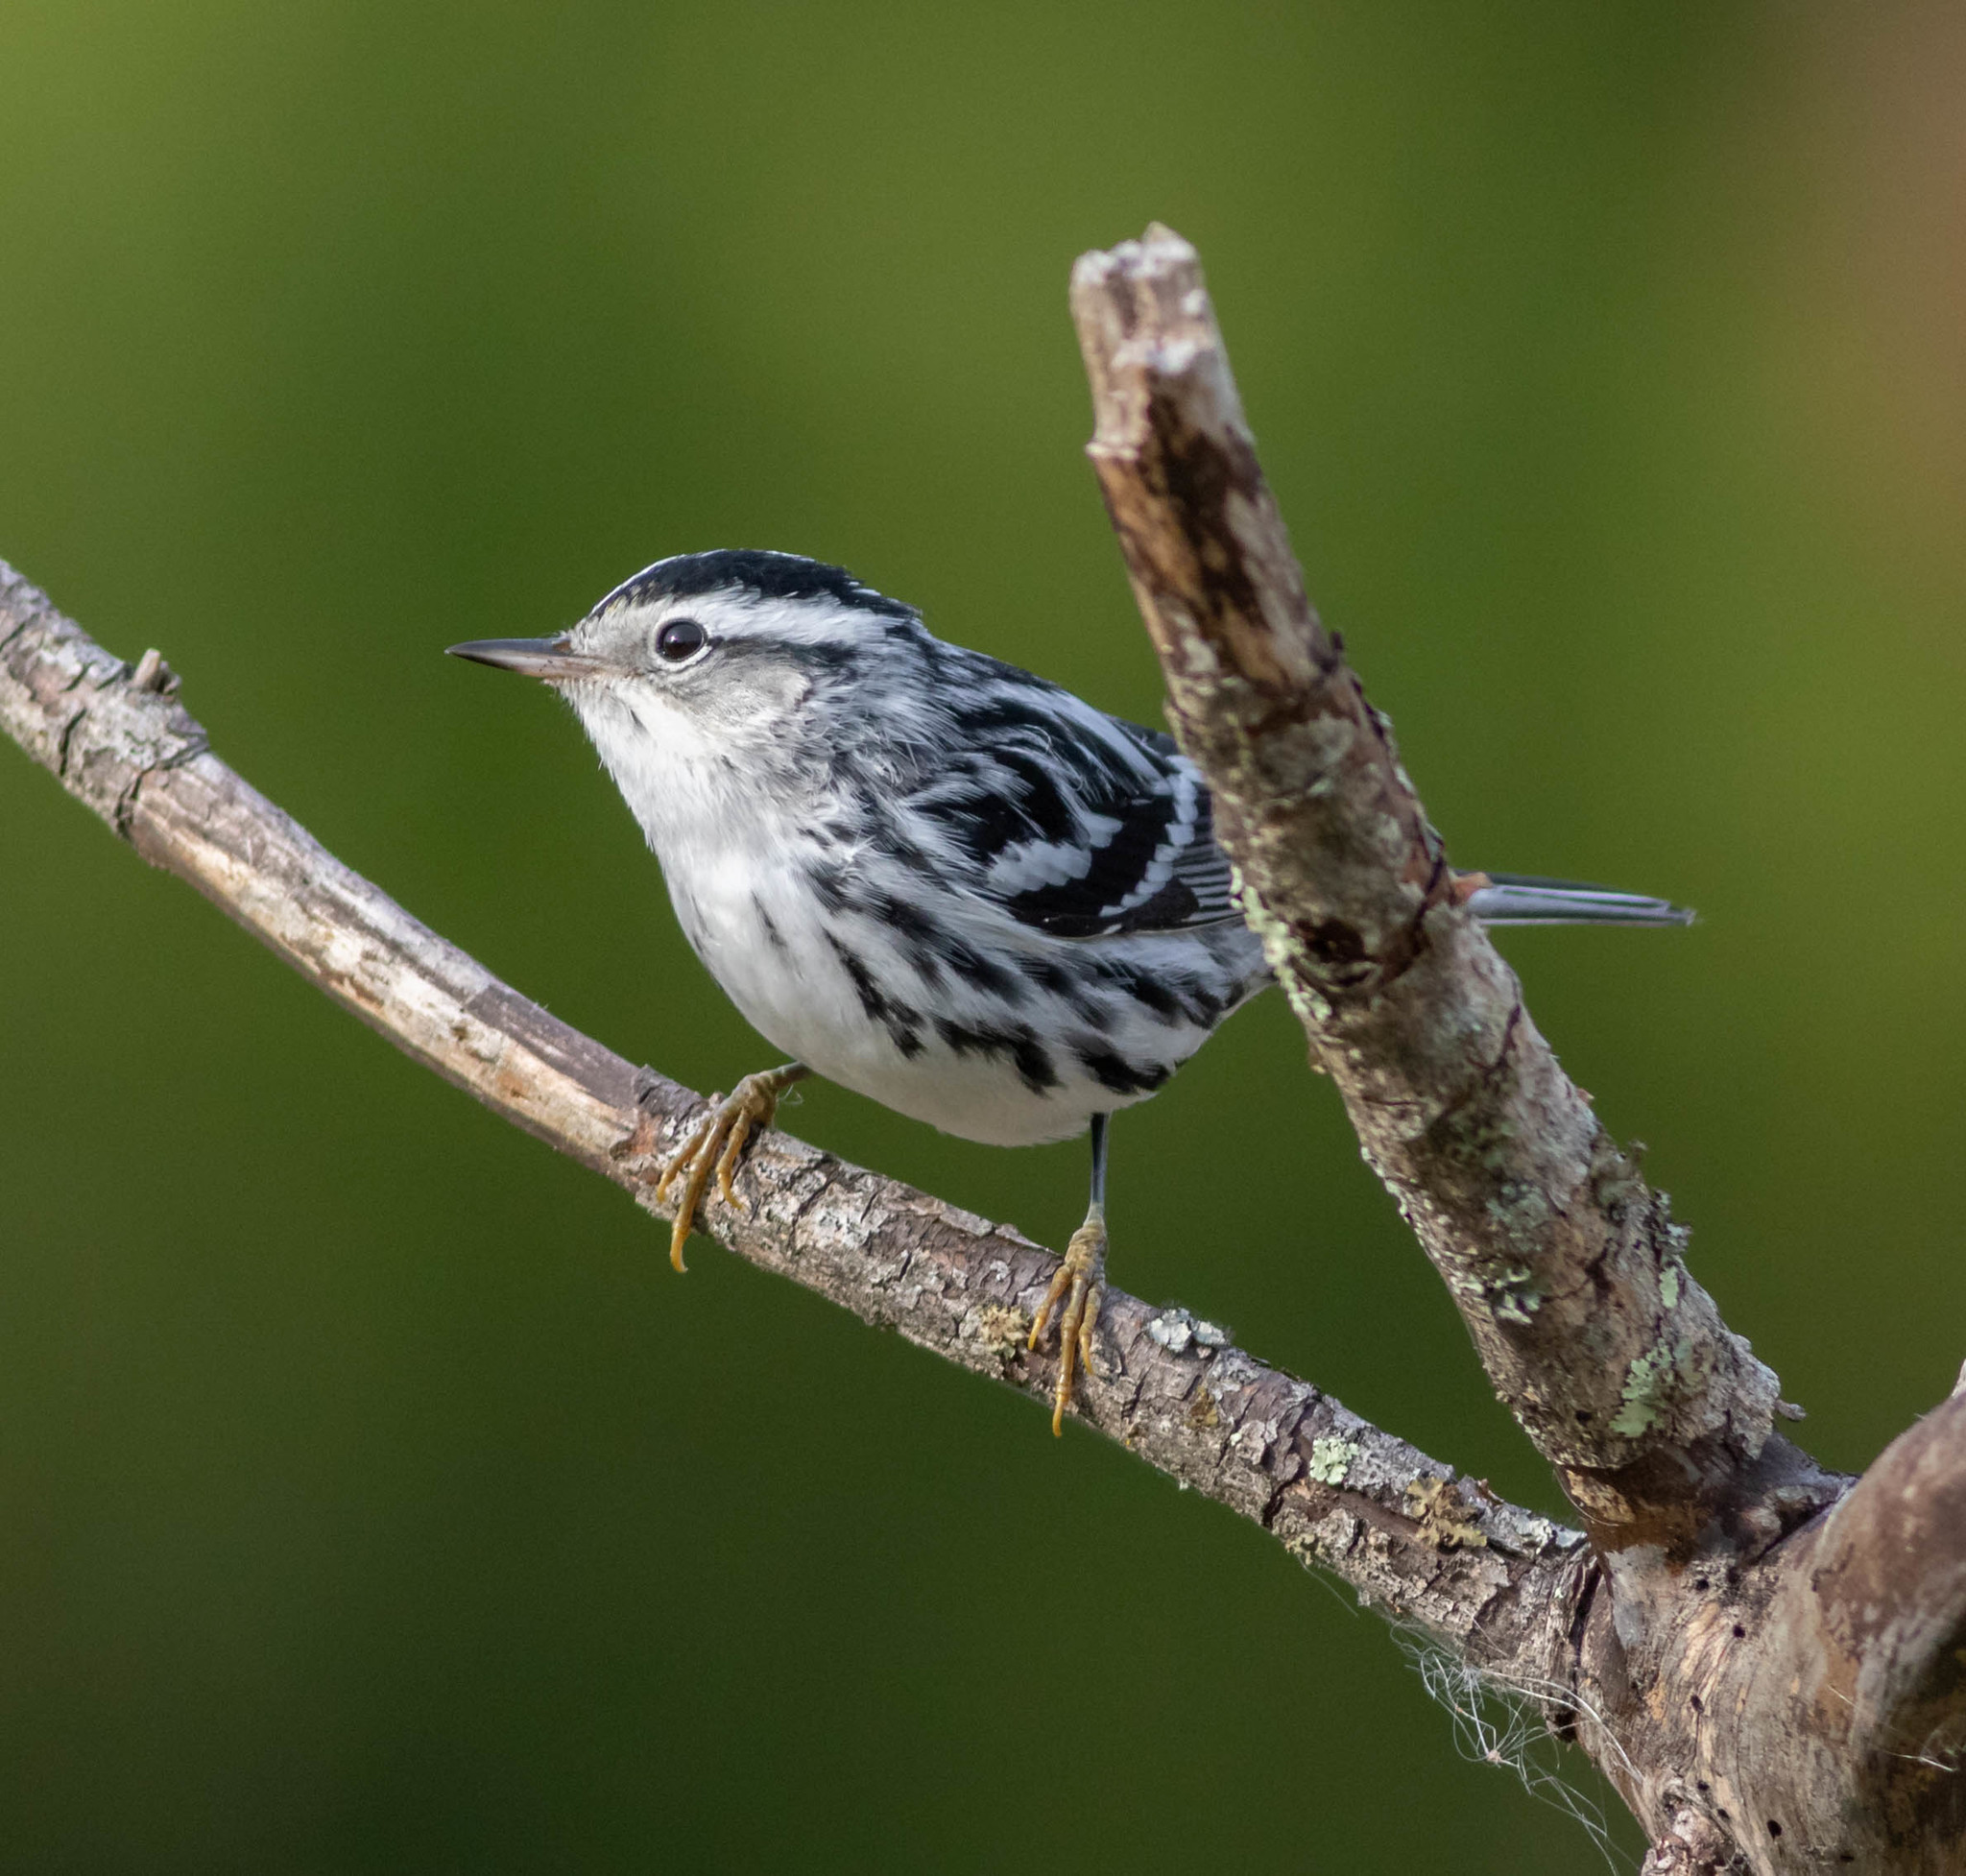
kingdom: Animalia
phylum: Chordata
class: Aves
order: Passeriformes
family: Parulidae
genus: Mniotilta
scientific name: Mniotilta varia
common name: Black-and-white warbler
